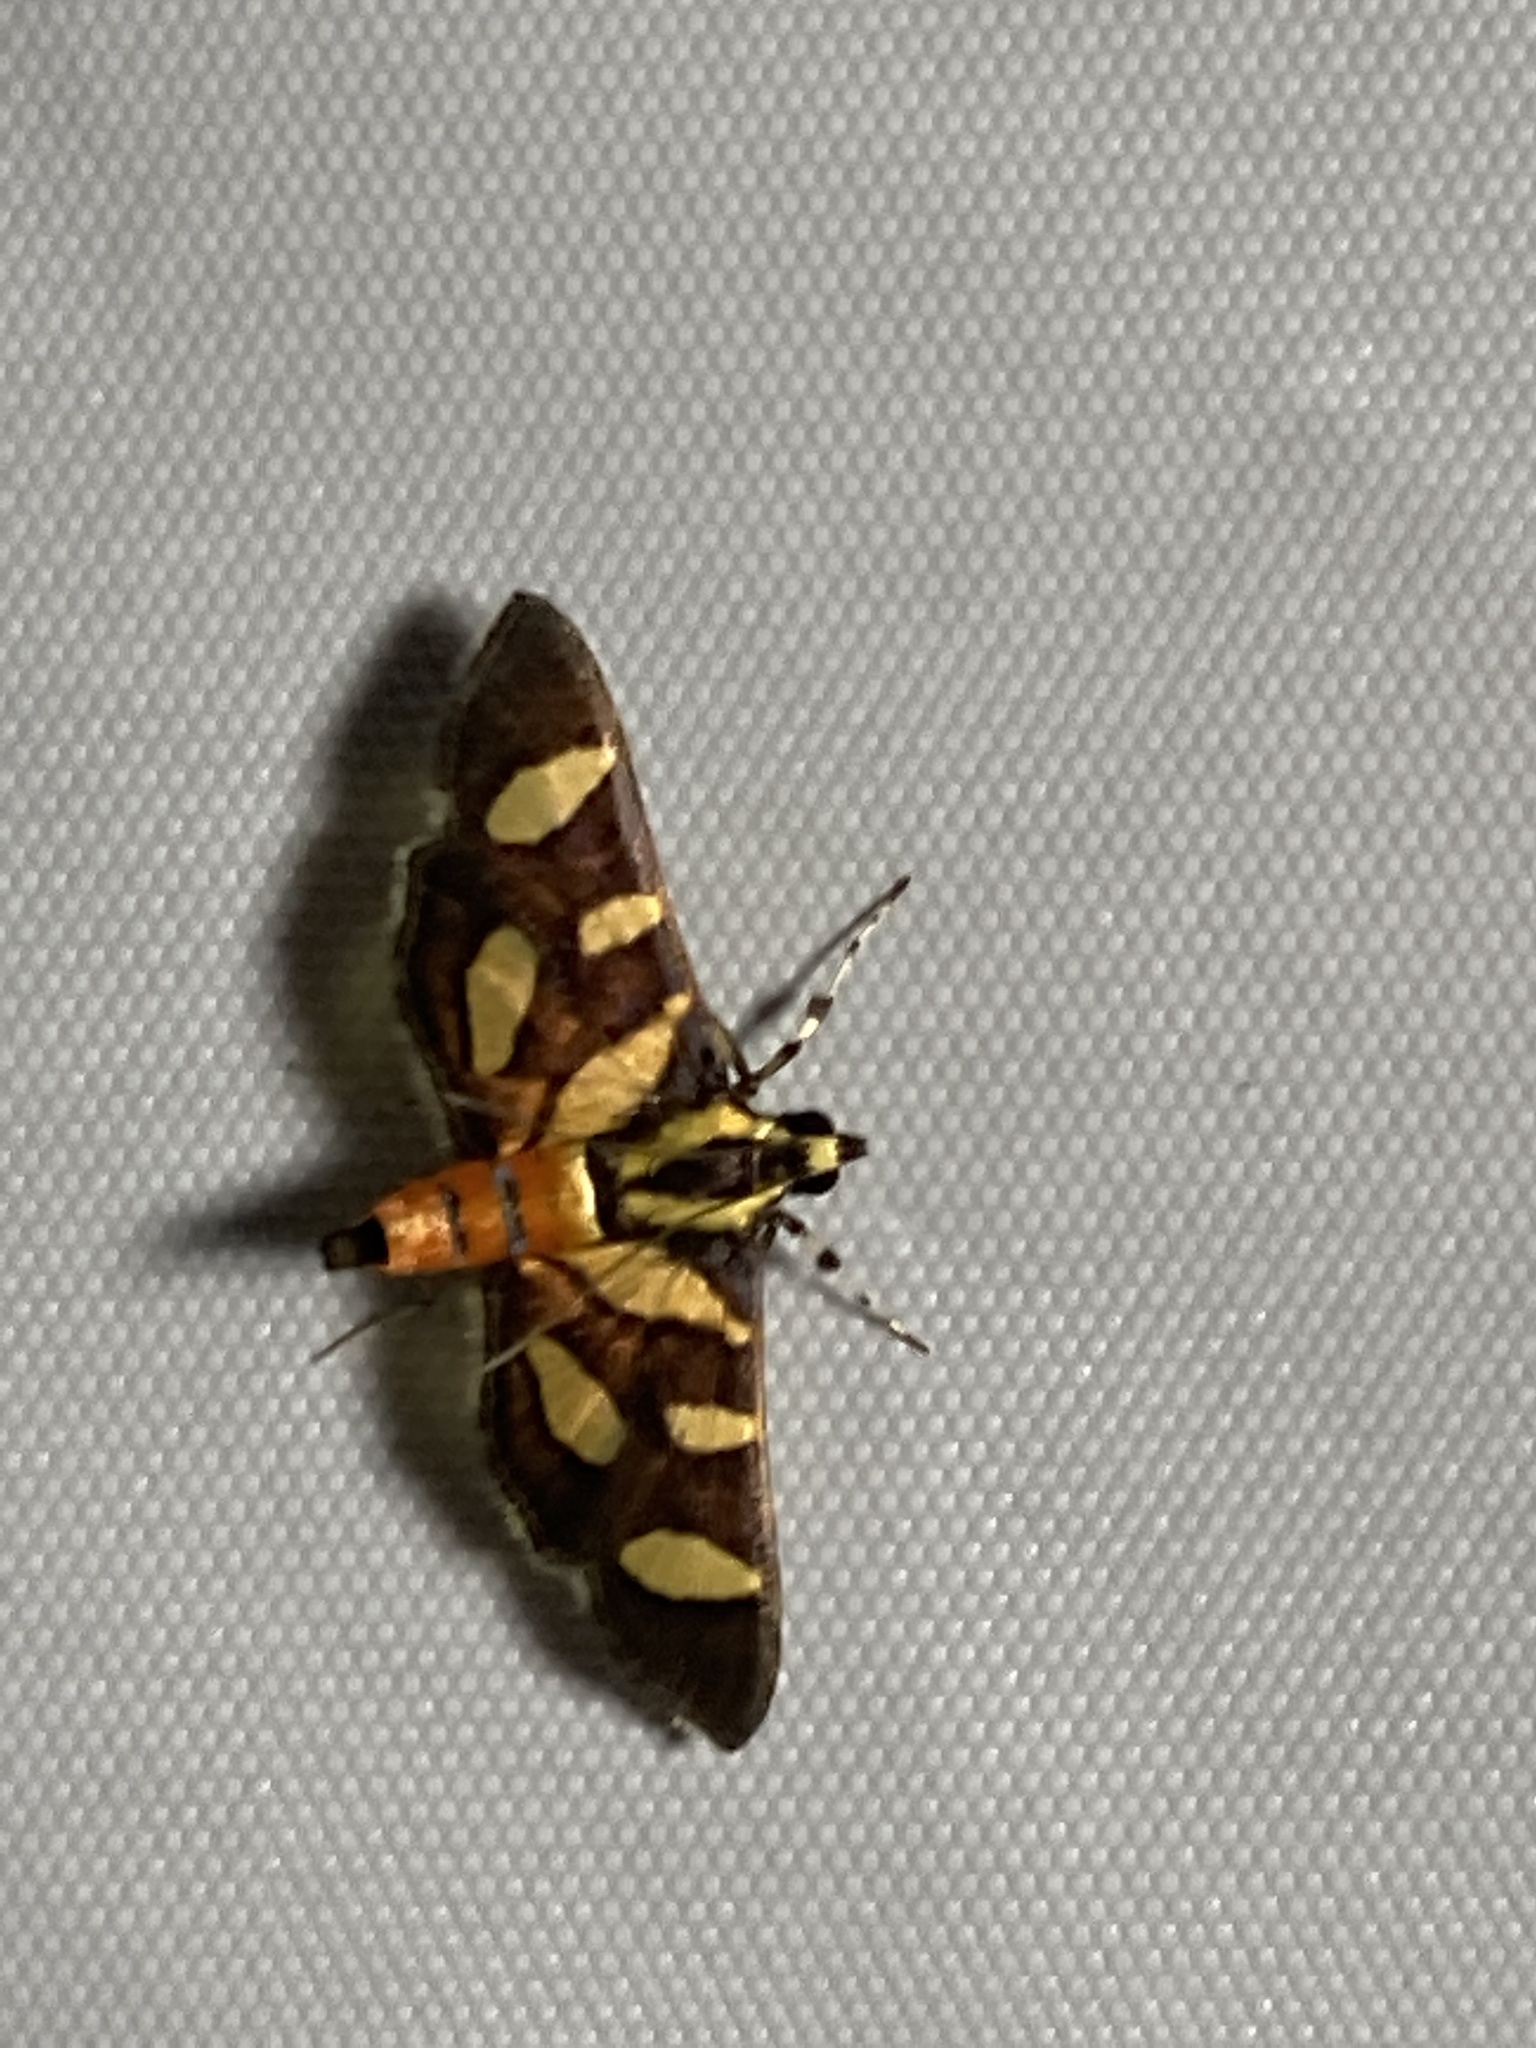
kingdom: Animalia
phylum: Arthropoda
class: Insecta
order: Lepidoptera
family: Crambidae
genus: Syngamia
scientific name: Syngamia florella
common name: Orange-spotted flower moth
